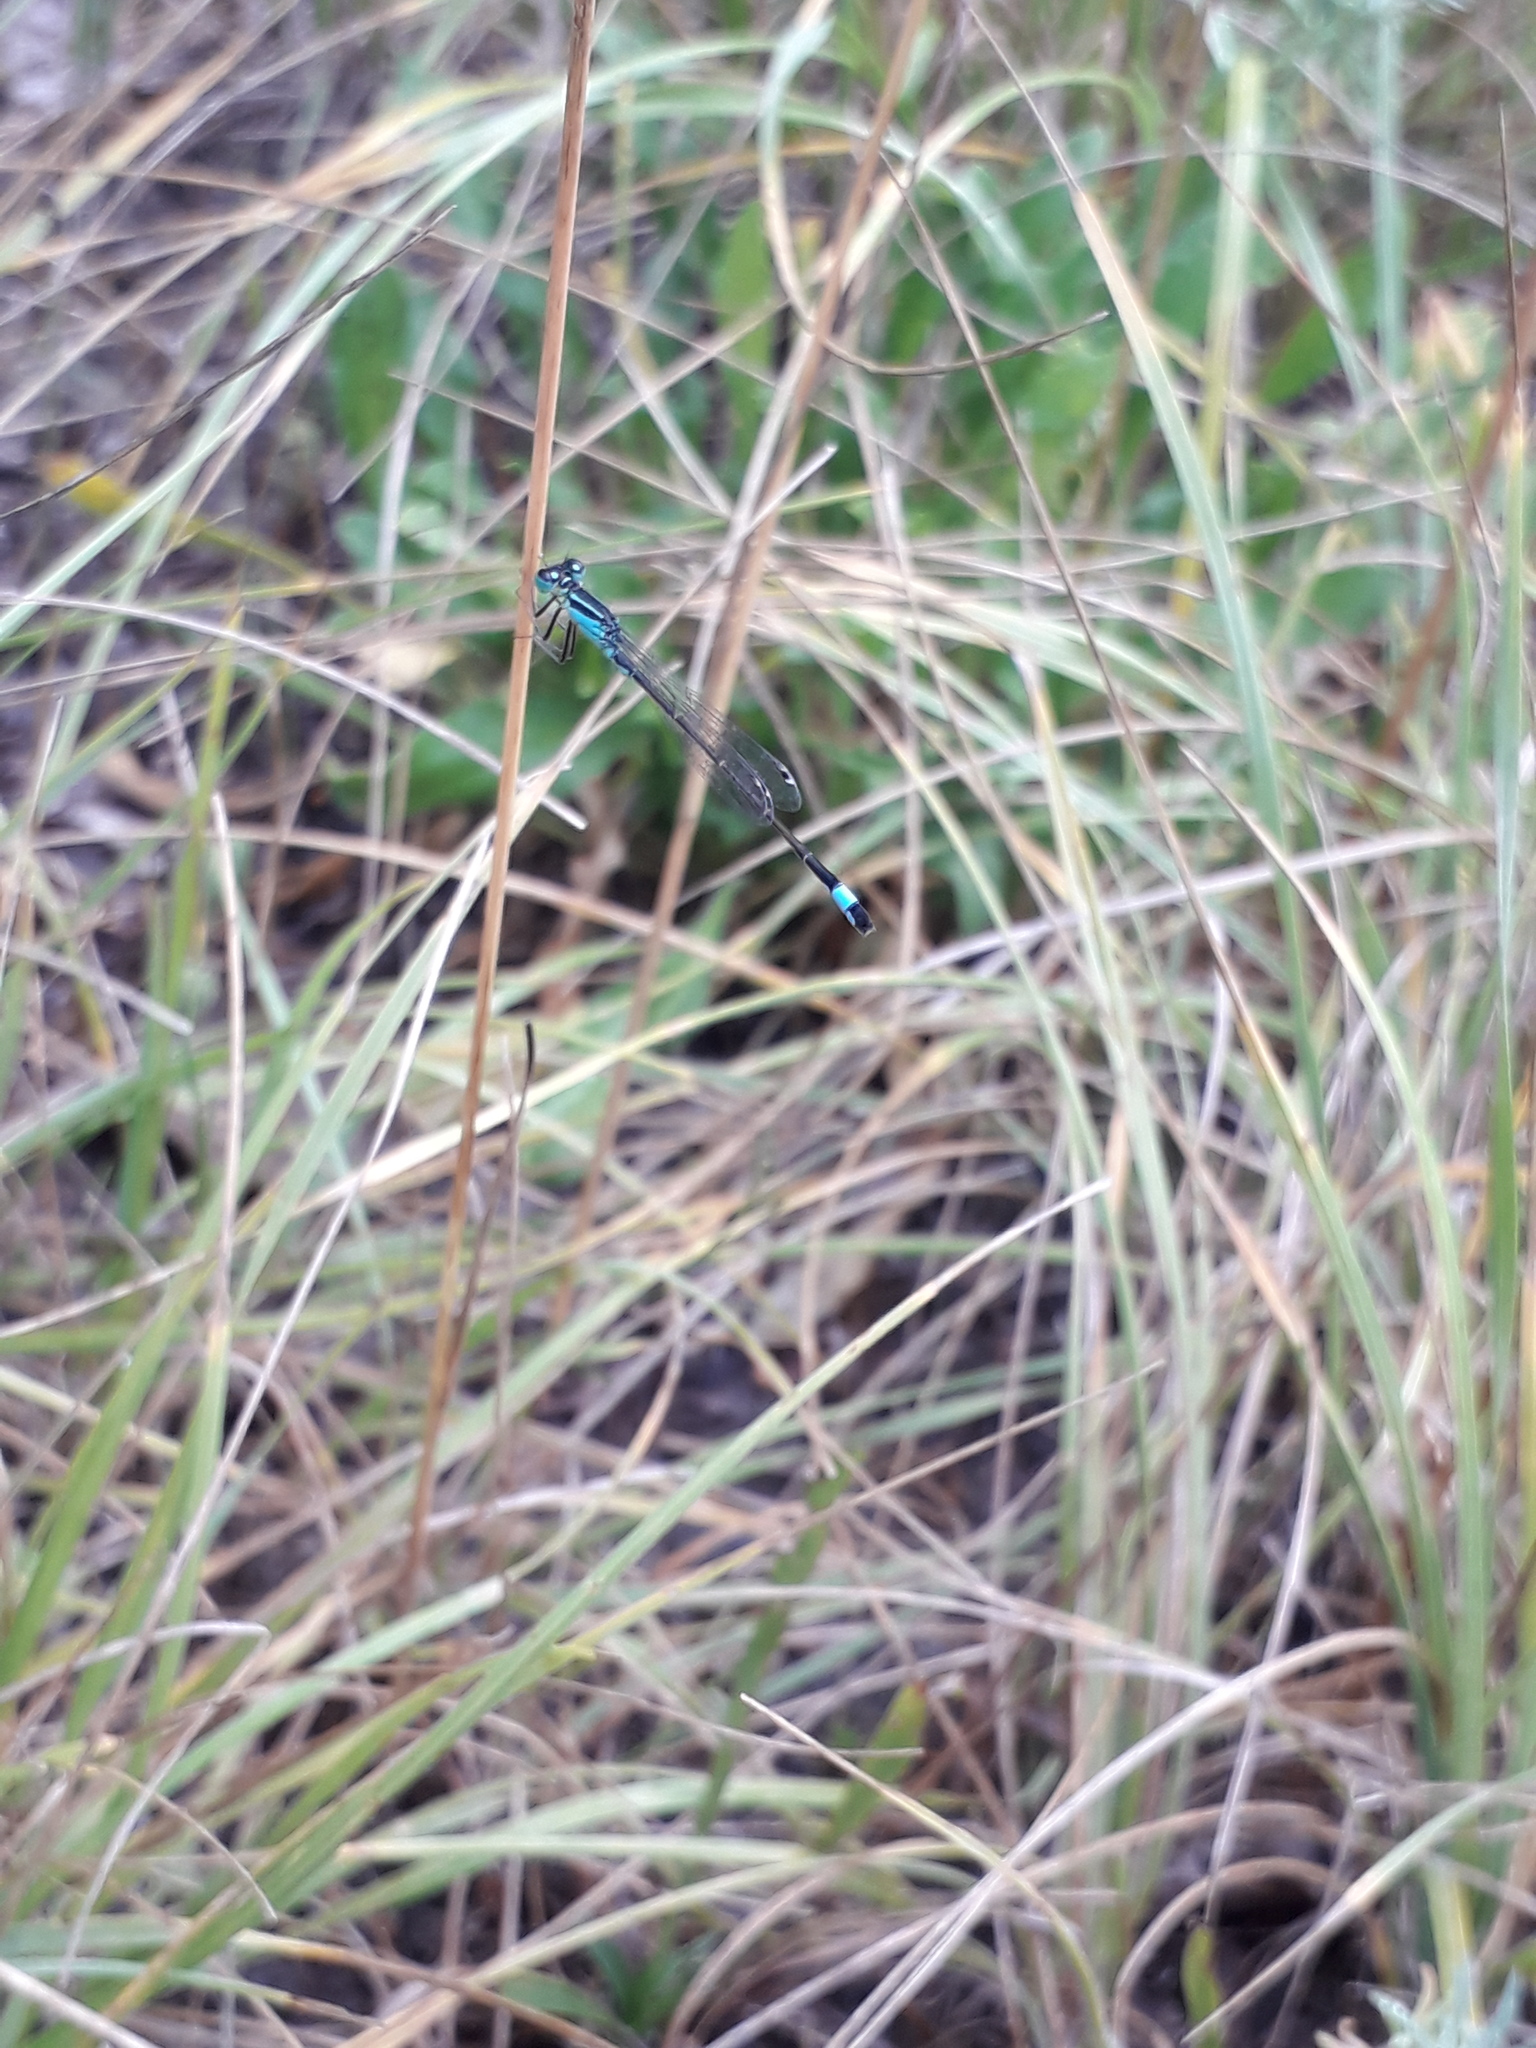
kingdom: Animalia
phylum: Arthropoda
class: Insecta
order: Odonata
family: Coenagrionidae
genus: Ischnura
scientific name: Ischnura elegans
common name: Blue-tailed damselfly
